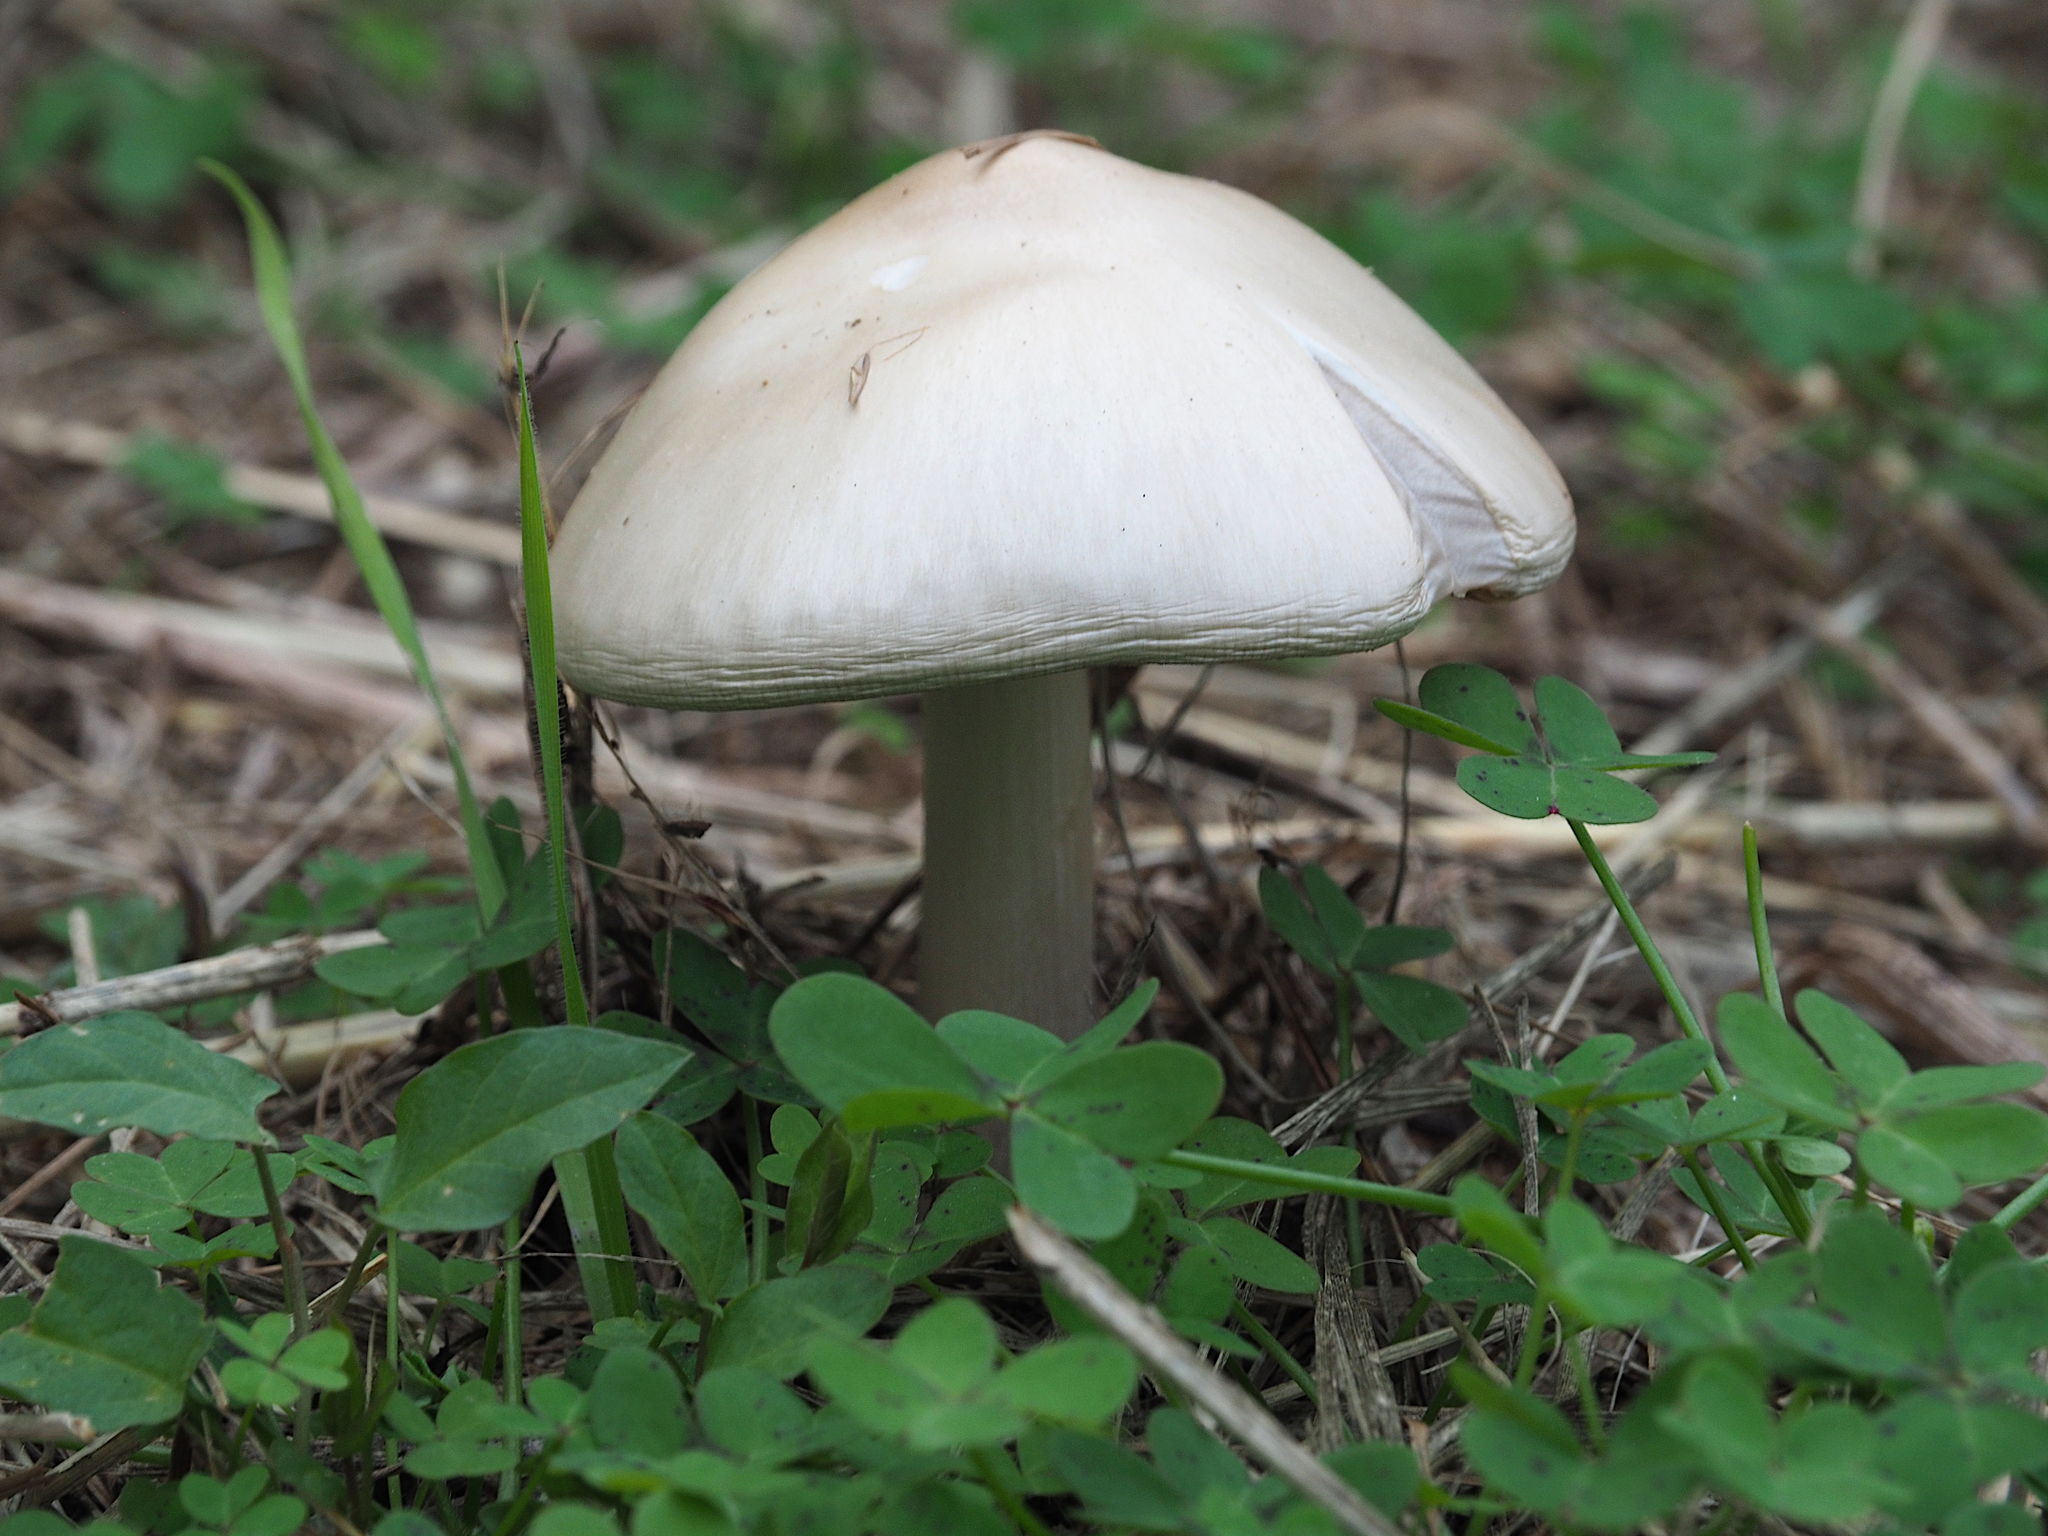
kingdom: Fungi
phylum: Basidiomycota
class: Agaricomycetes
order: Agaricales
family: Pluteaceae
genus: Volvopluteus
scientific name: Volvopluteus gloiocephalus
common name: Stubble rosegill
